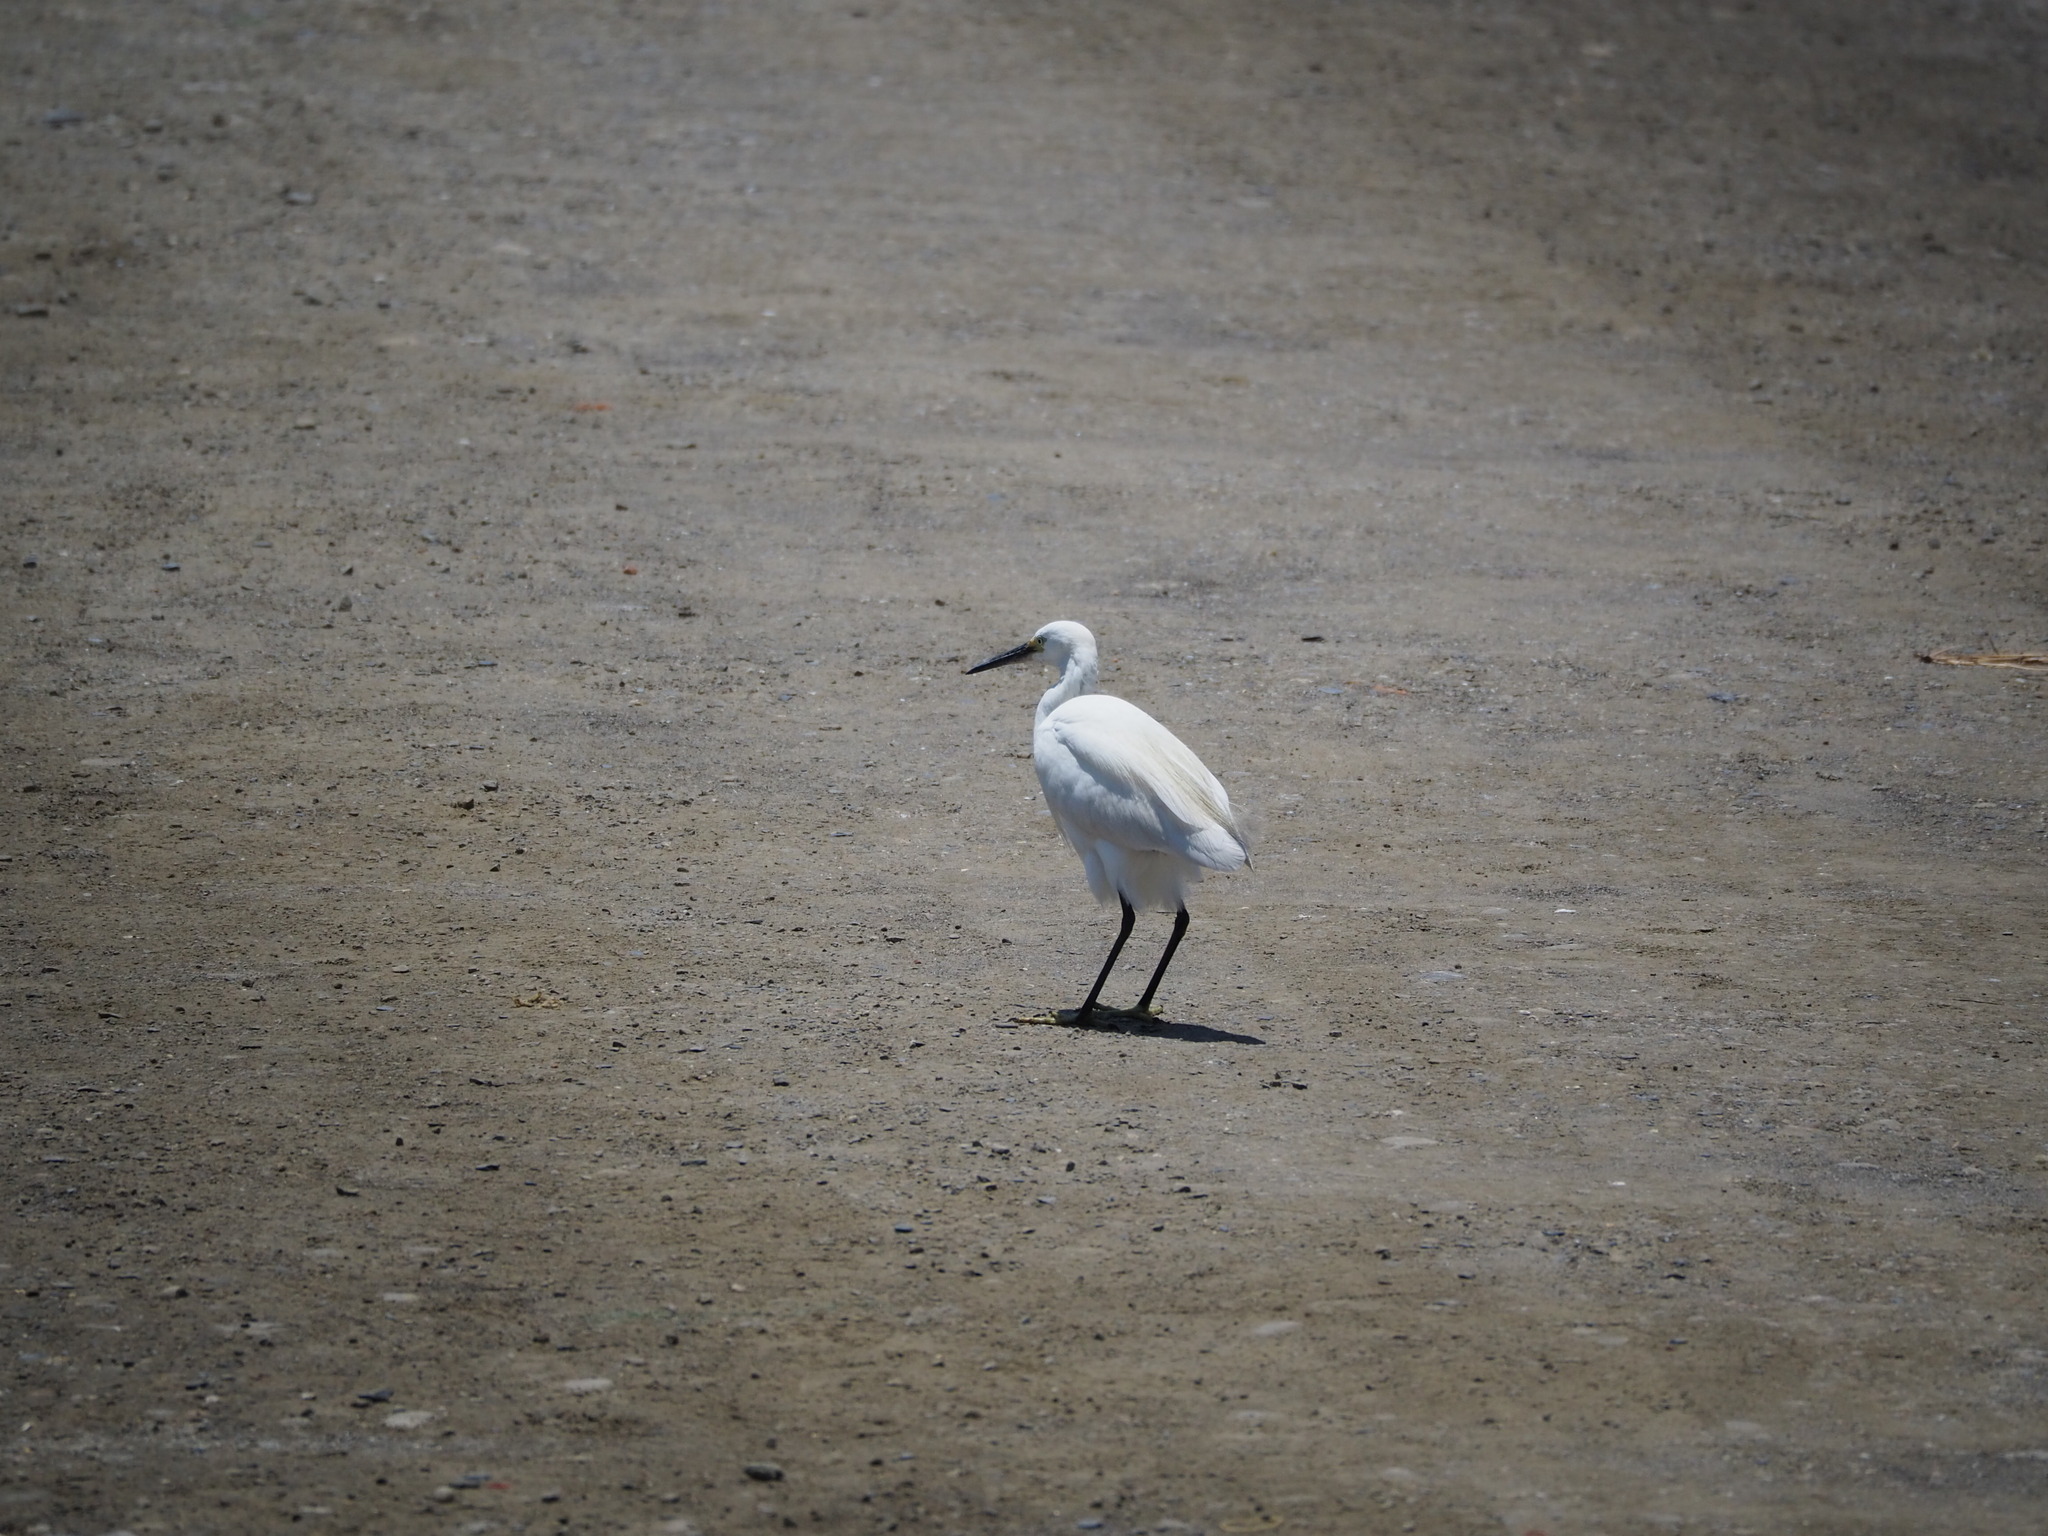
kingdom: Animalia
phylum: Chordata
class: Aves
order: Pelecaniformes
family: Ardeidae
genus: Egretta
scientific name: Egretta garzetta
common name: Little egret
